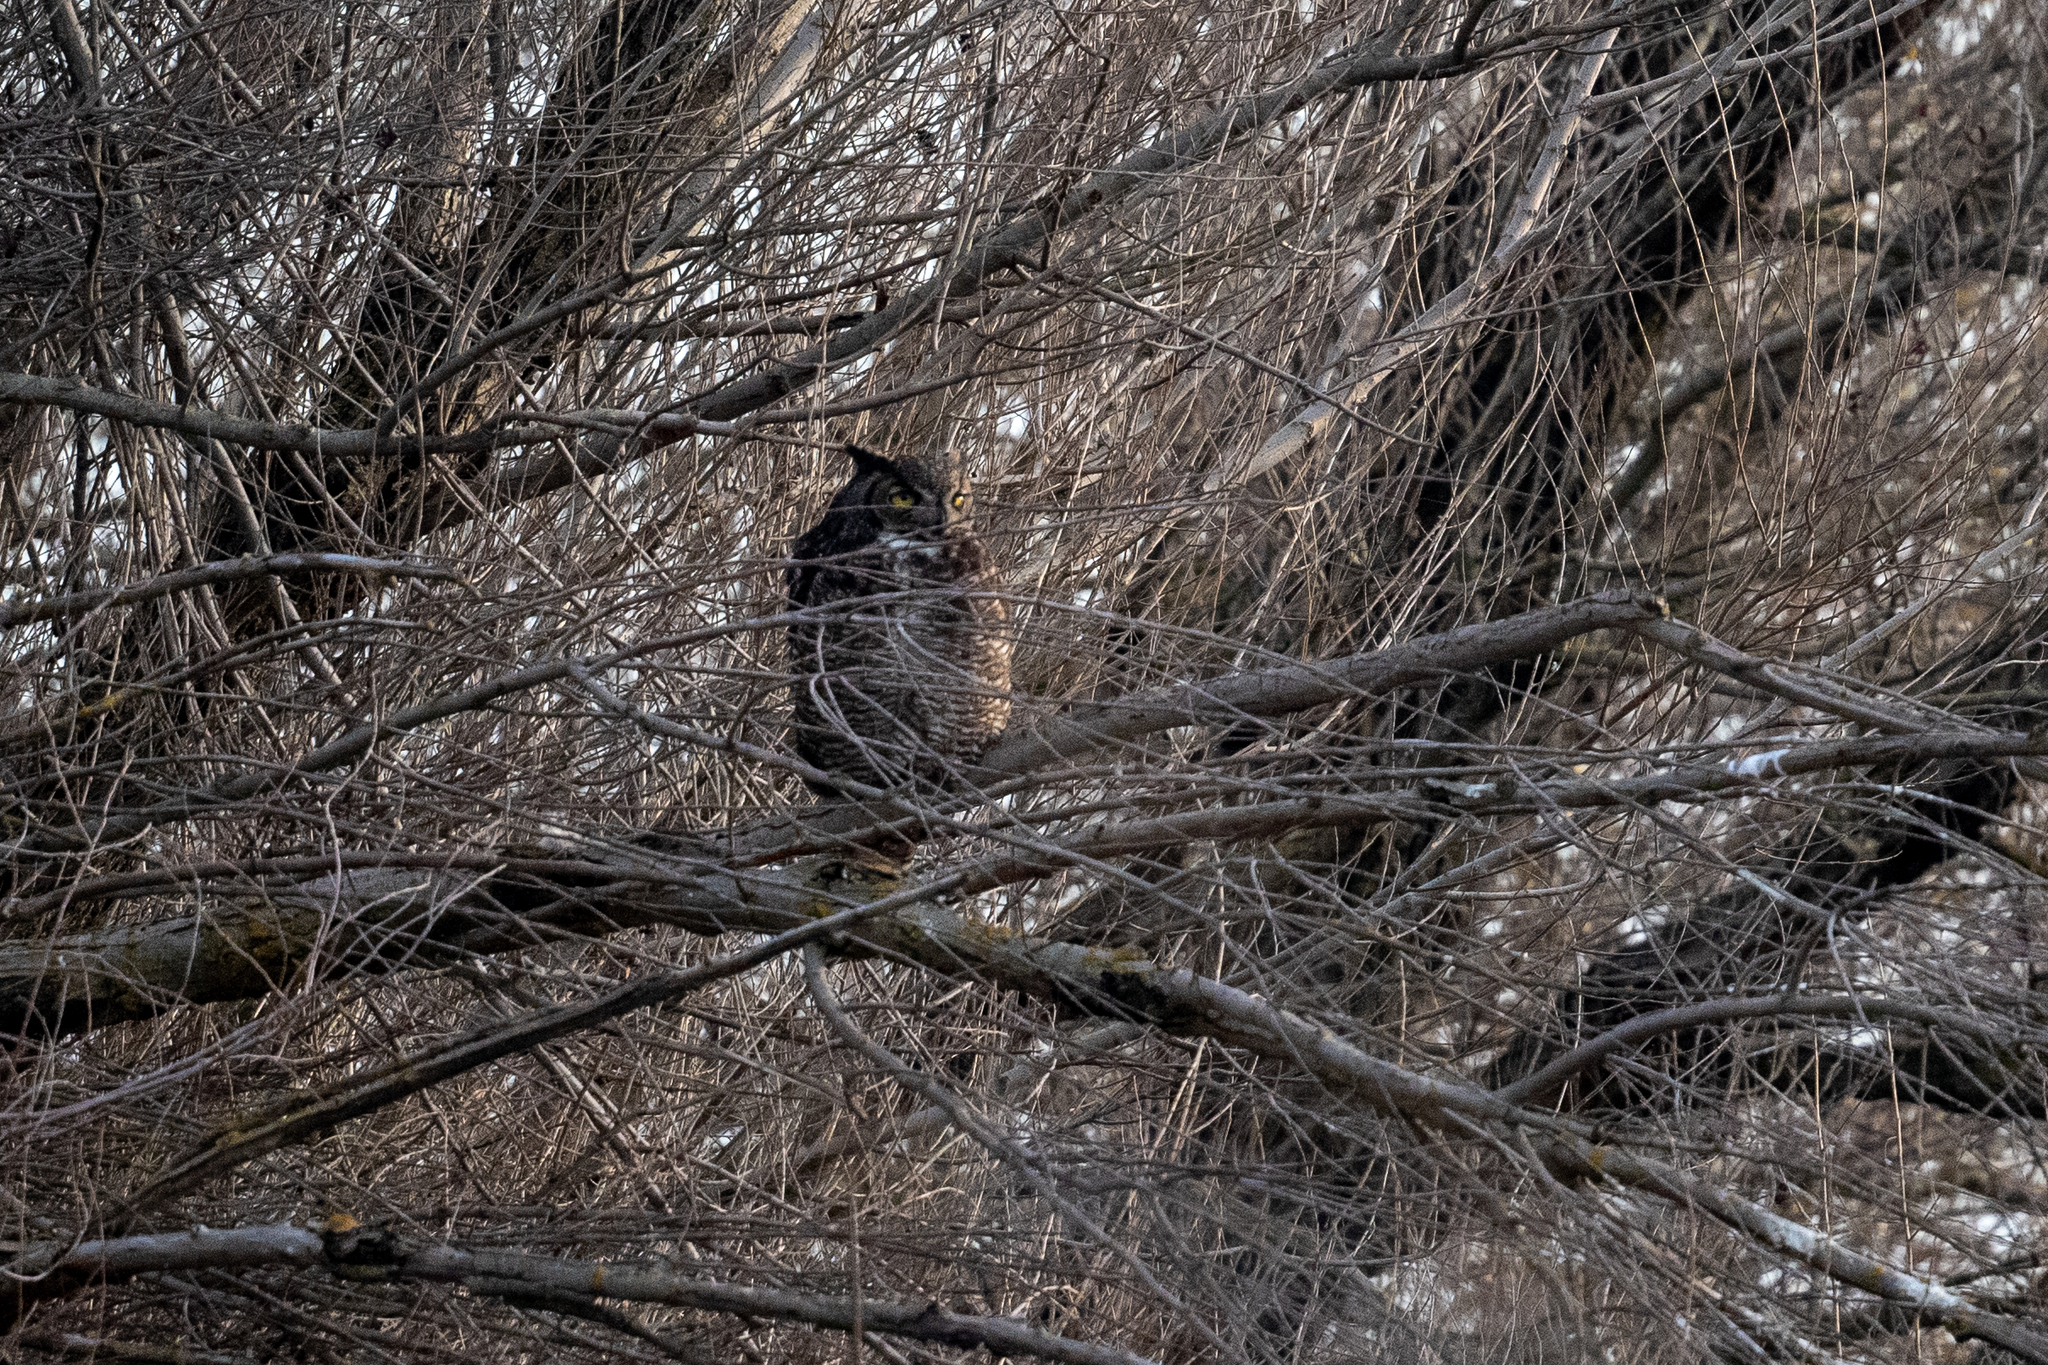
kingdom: Animalia
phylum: Chordata
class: Aves
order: Strigiformes
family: Strigidae
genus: Bubo
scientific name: Bubo virginianus
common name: Great horned owl
